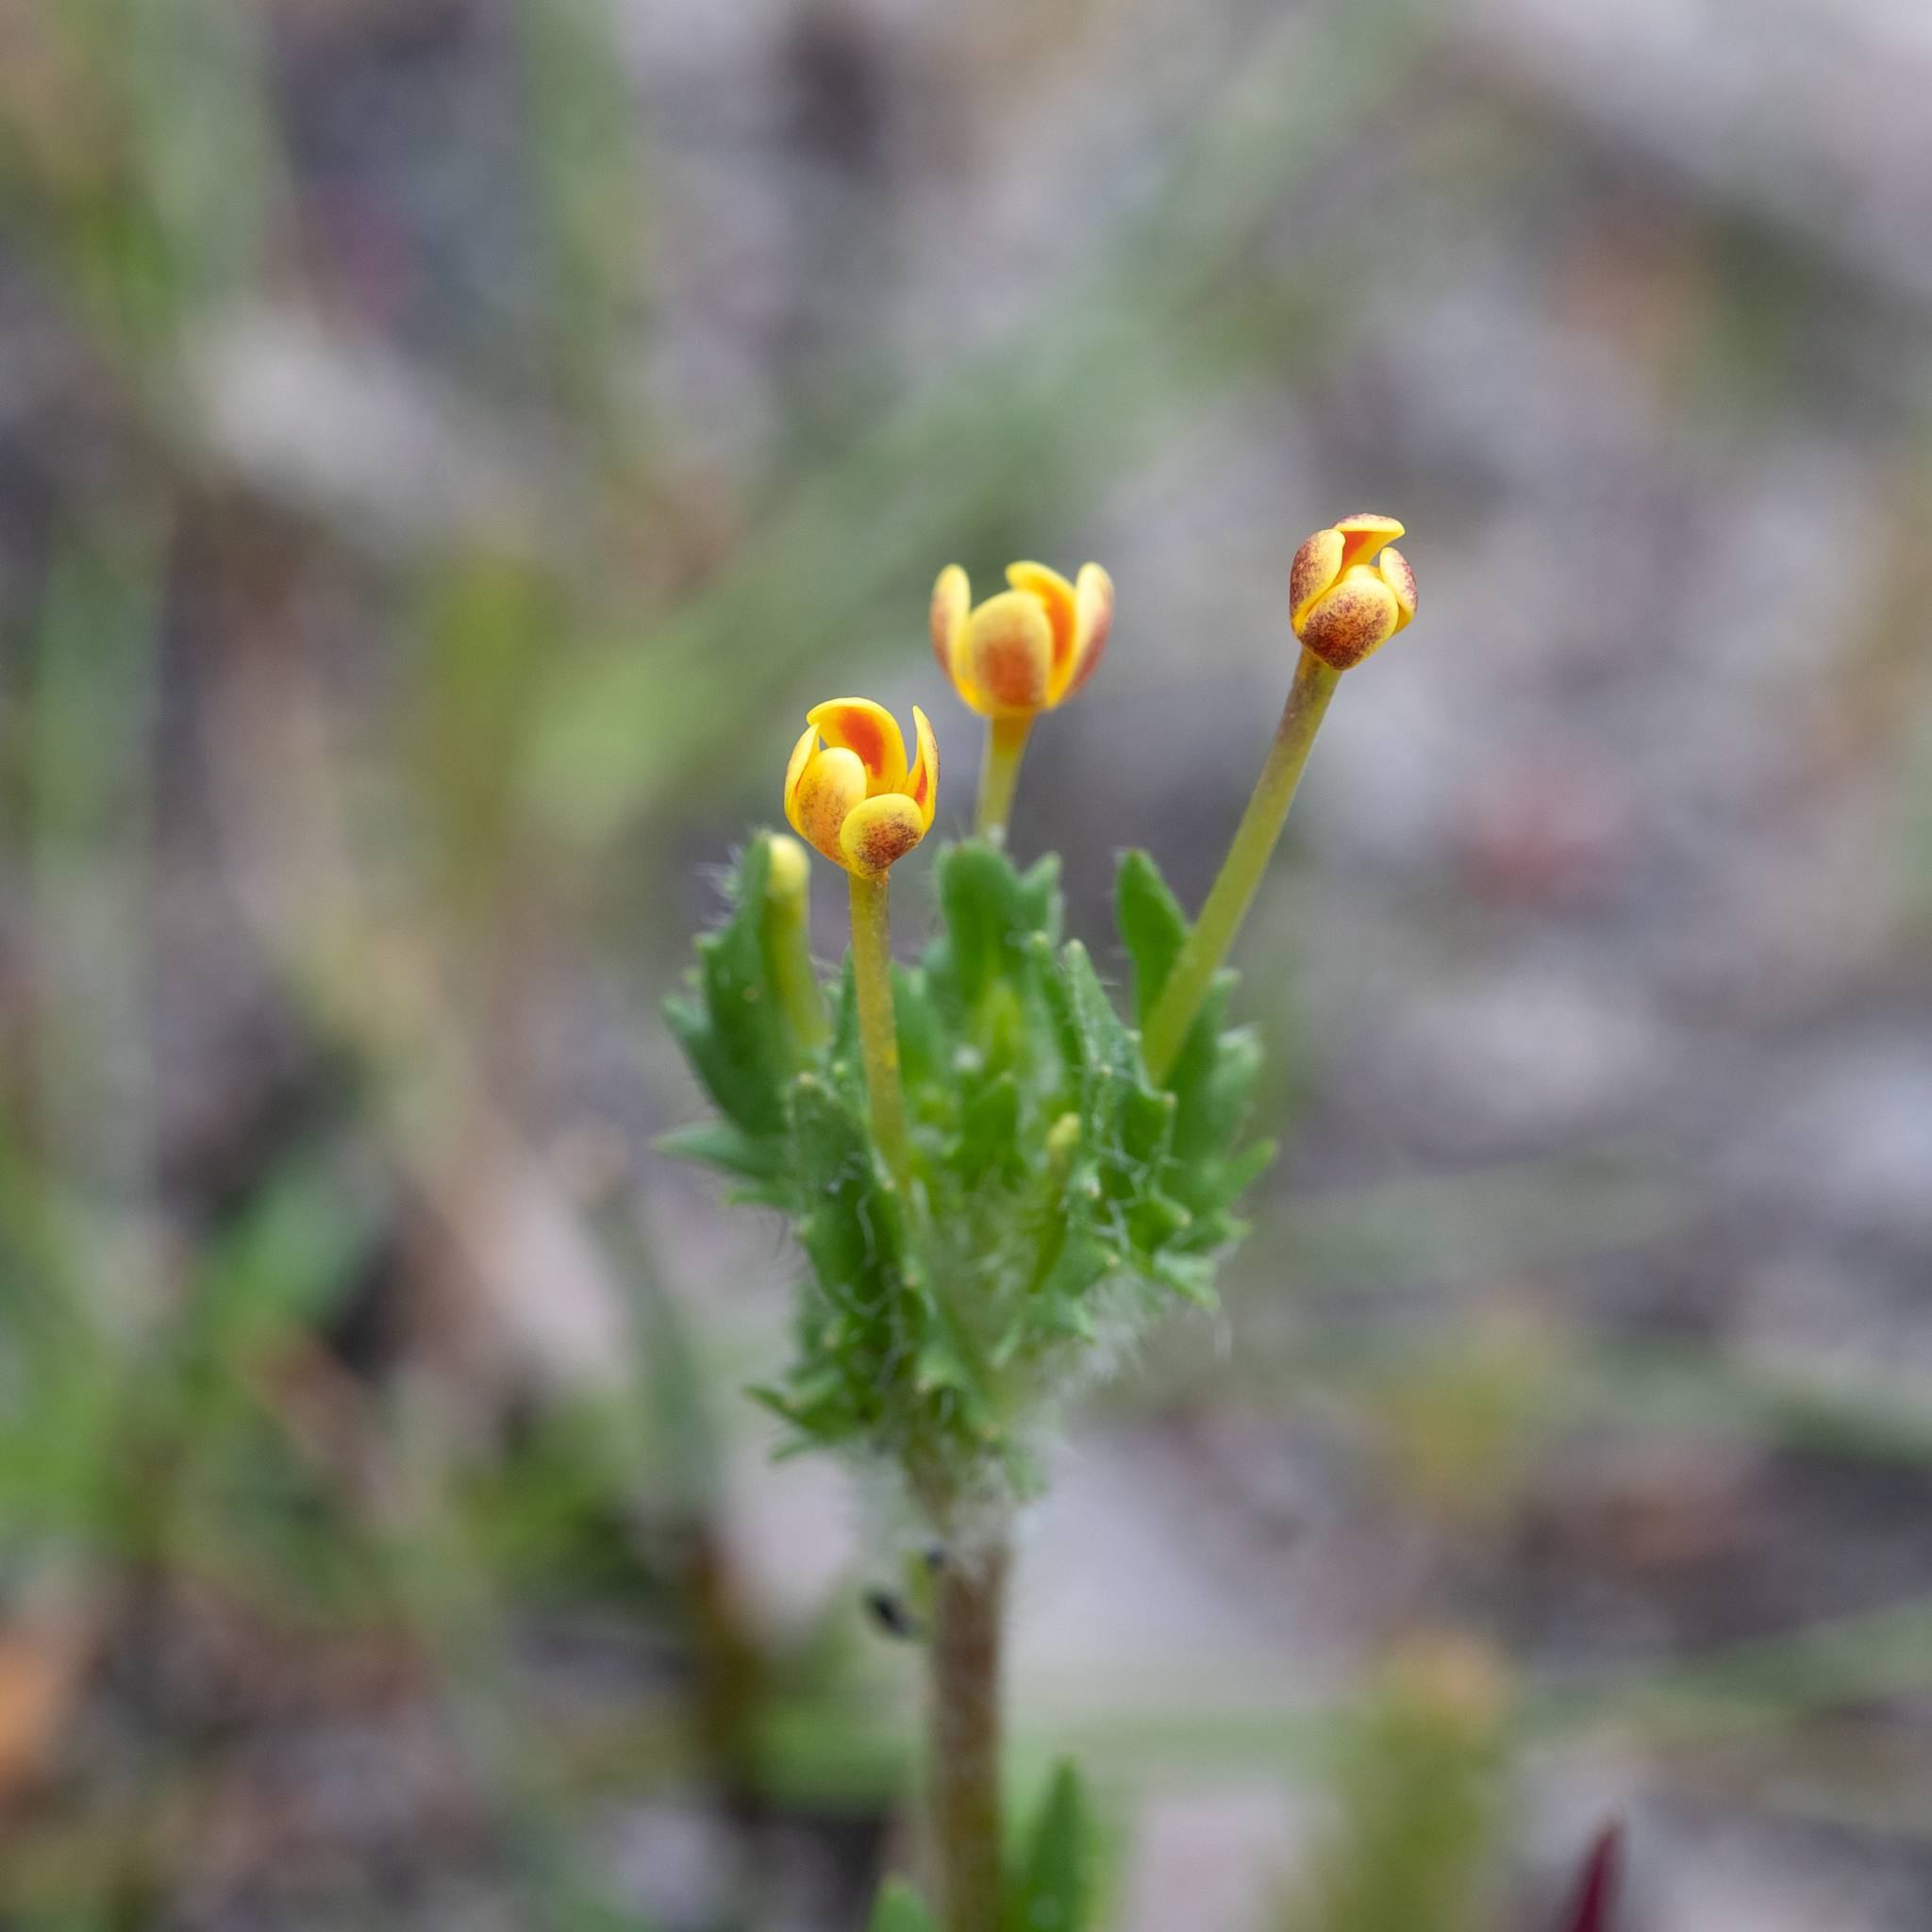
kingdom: Plantae
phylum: Tracheophyta
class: Magnoliopsida
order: Lamiales
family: Scrophulariaceae
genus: Zaluzianskya
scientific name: Zaluzianskya divaricata
